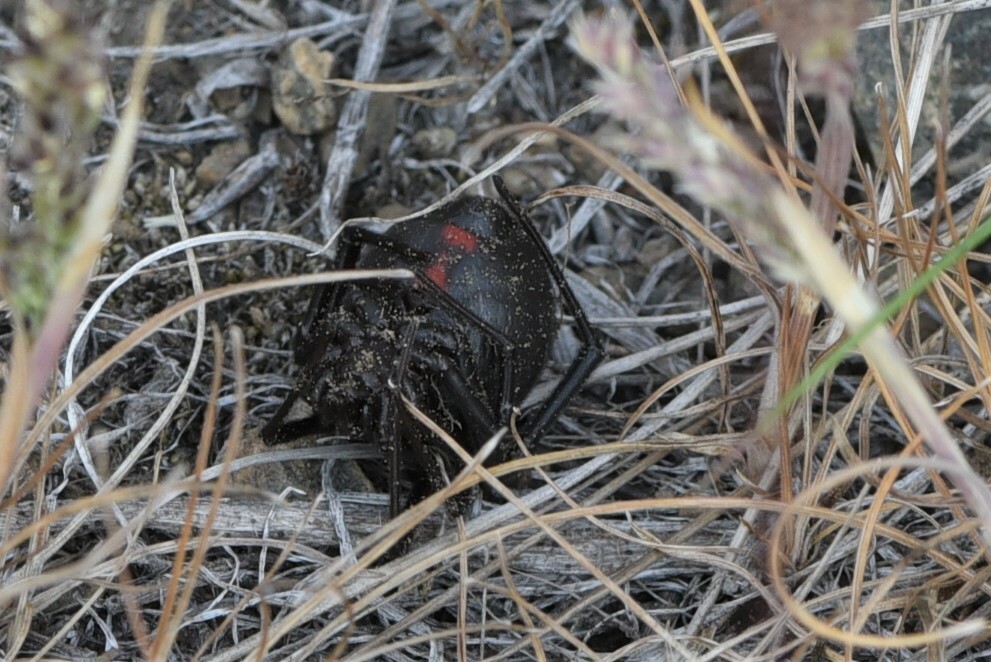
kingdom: Animalia
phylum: Arthropoda
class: Arachnida
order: Araneae
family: Theridiidae
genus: Latrodectus
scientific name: Latrodectus hesperus
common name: Western black widow
